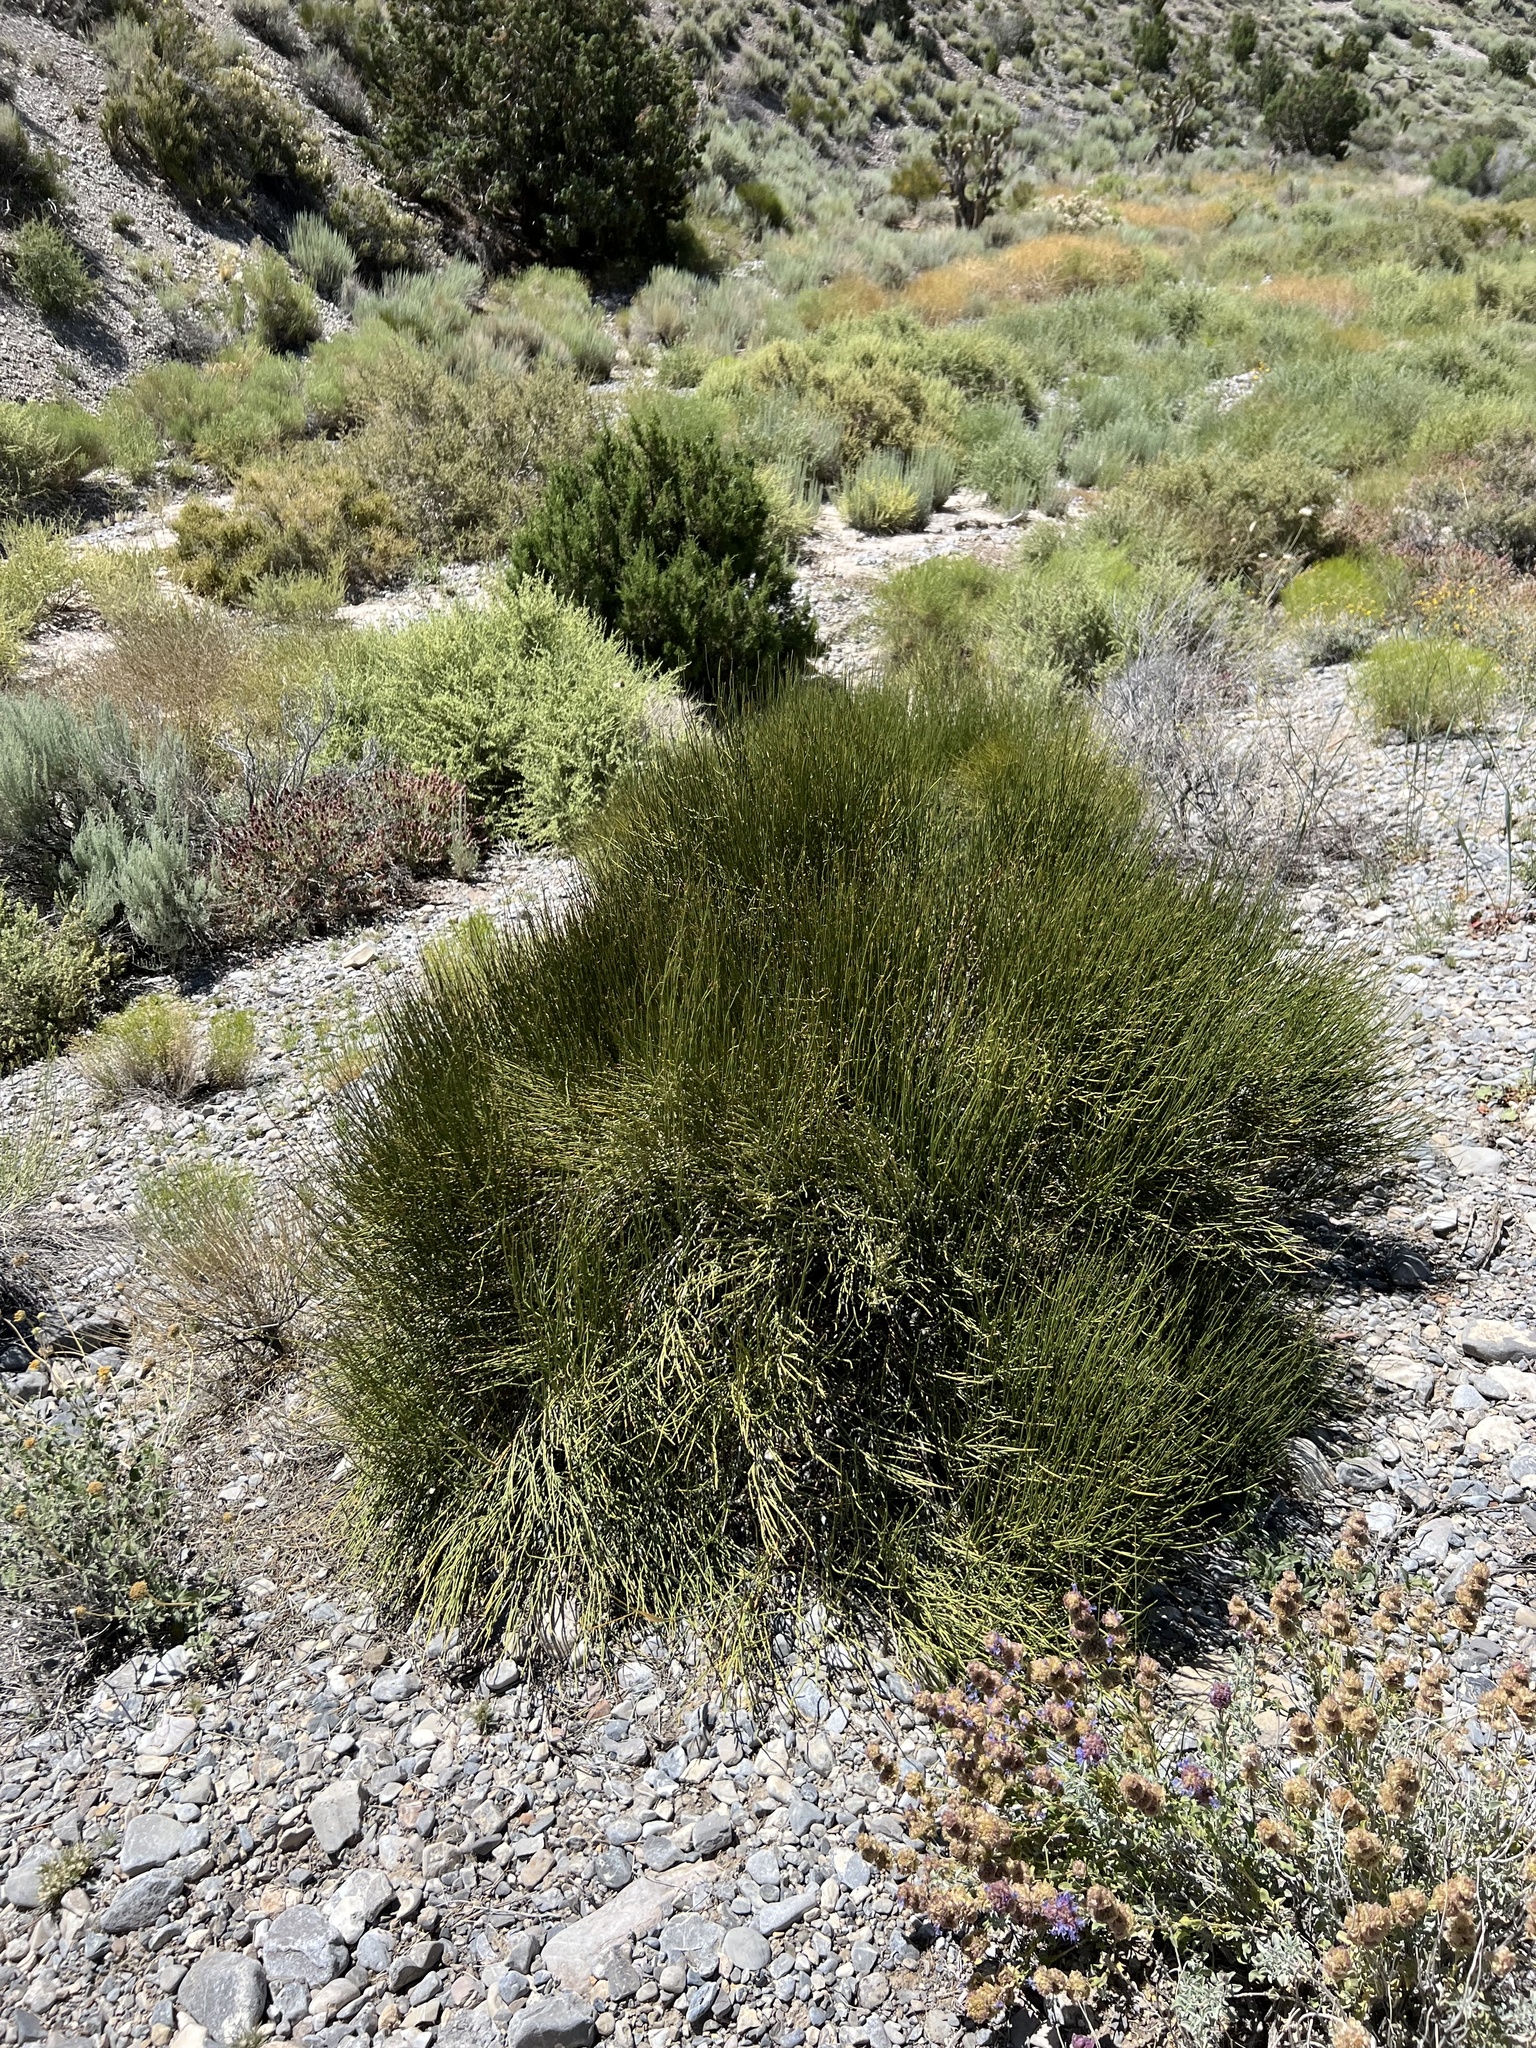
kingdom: Plantae
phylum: Tracheophyta
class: Gnetopsida
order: Ephedrales
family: Ephedraceae
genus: Ephedra
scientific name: Ephedra viridis
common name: Green ephedra
